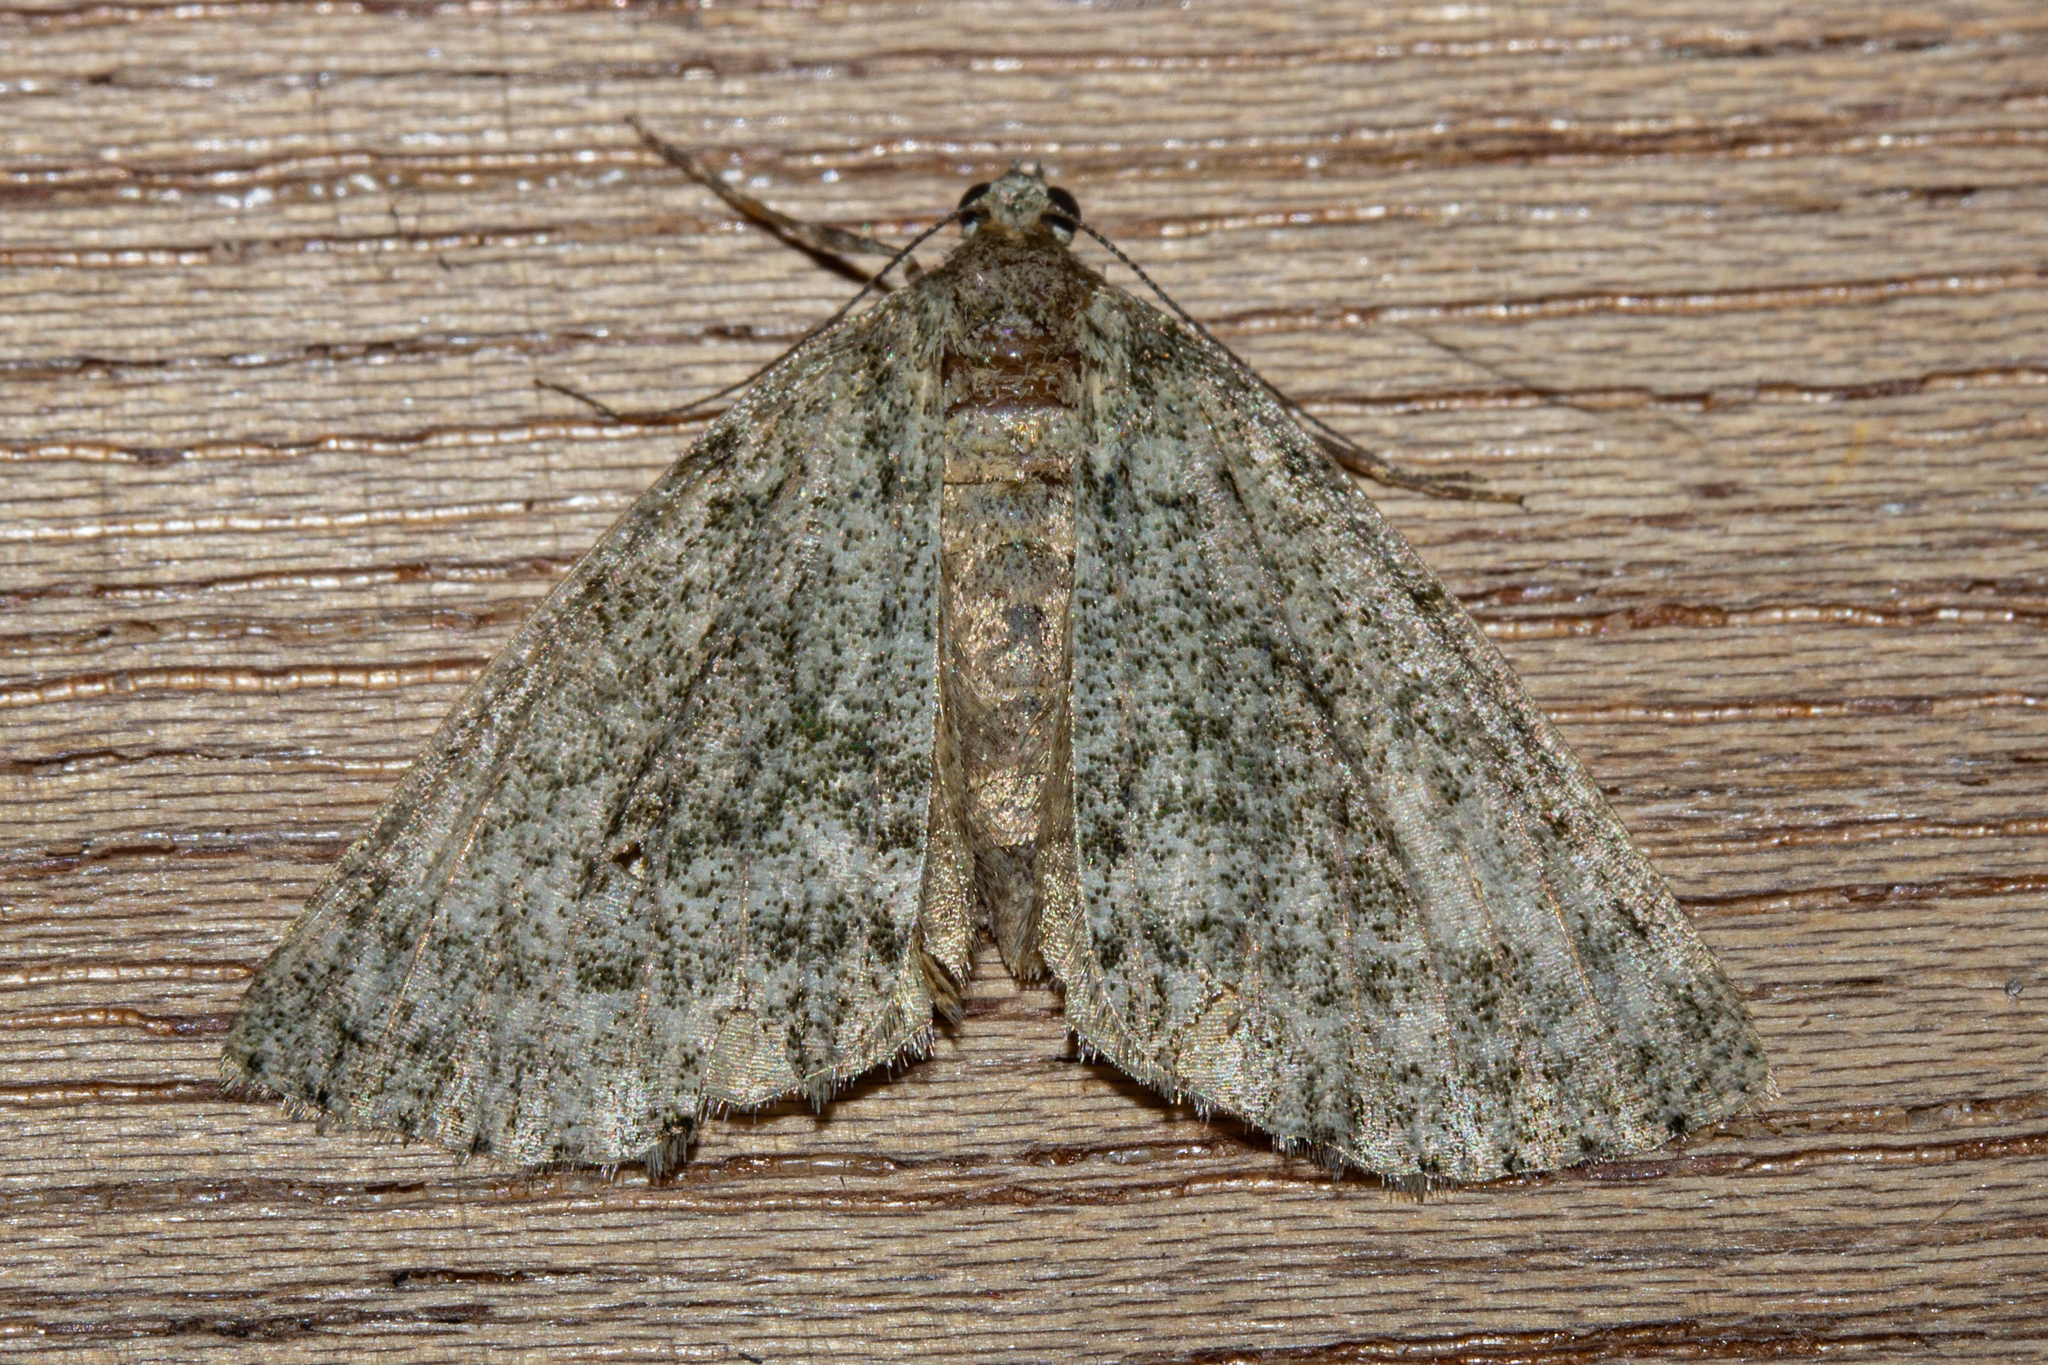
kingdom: Animalia
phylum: Arthropoda
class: Insecta
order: Lepidoptera
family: Geometridae
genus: Pseudocoremia
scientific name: Pseudocoremia indistincta
